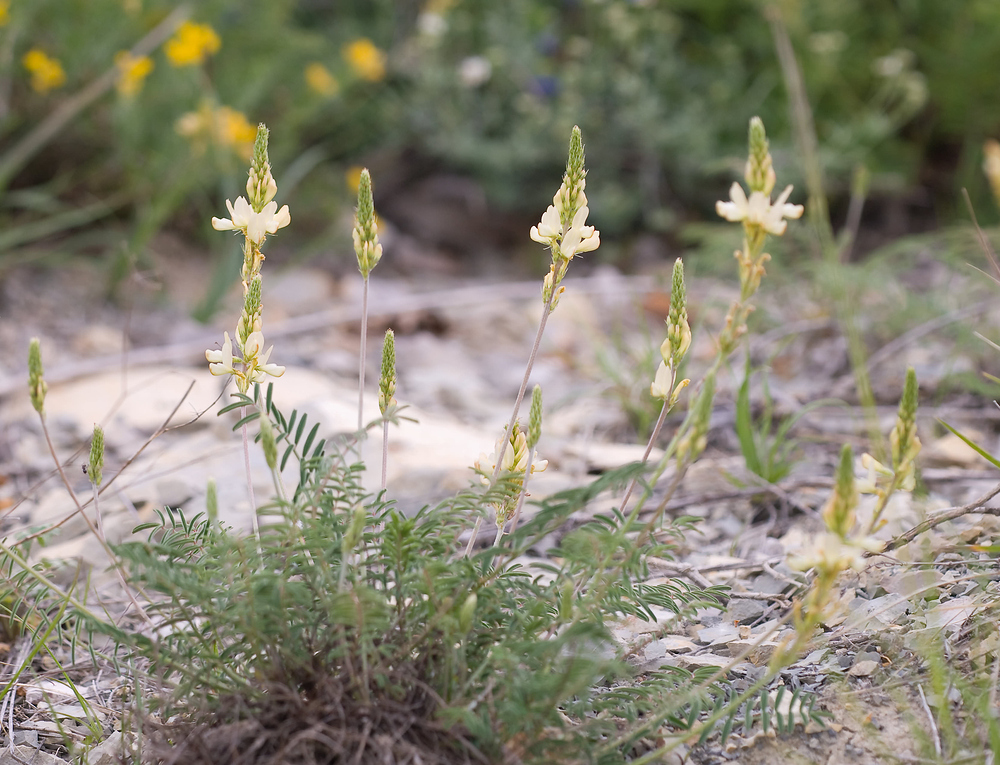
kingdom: Plantae
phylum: Tracheophyta
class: Magnoliopsida
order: Fabales
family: Fabaceae
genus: Onobrychis
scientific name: Onobrychis saxatilis
